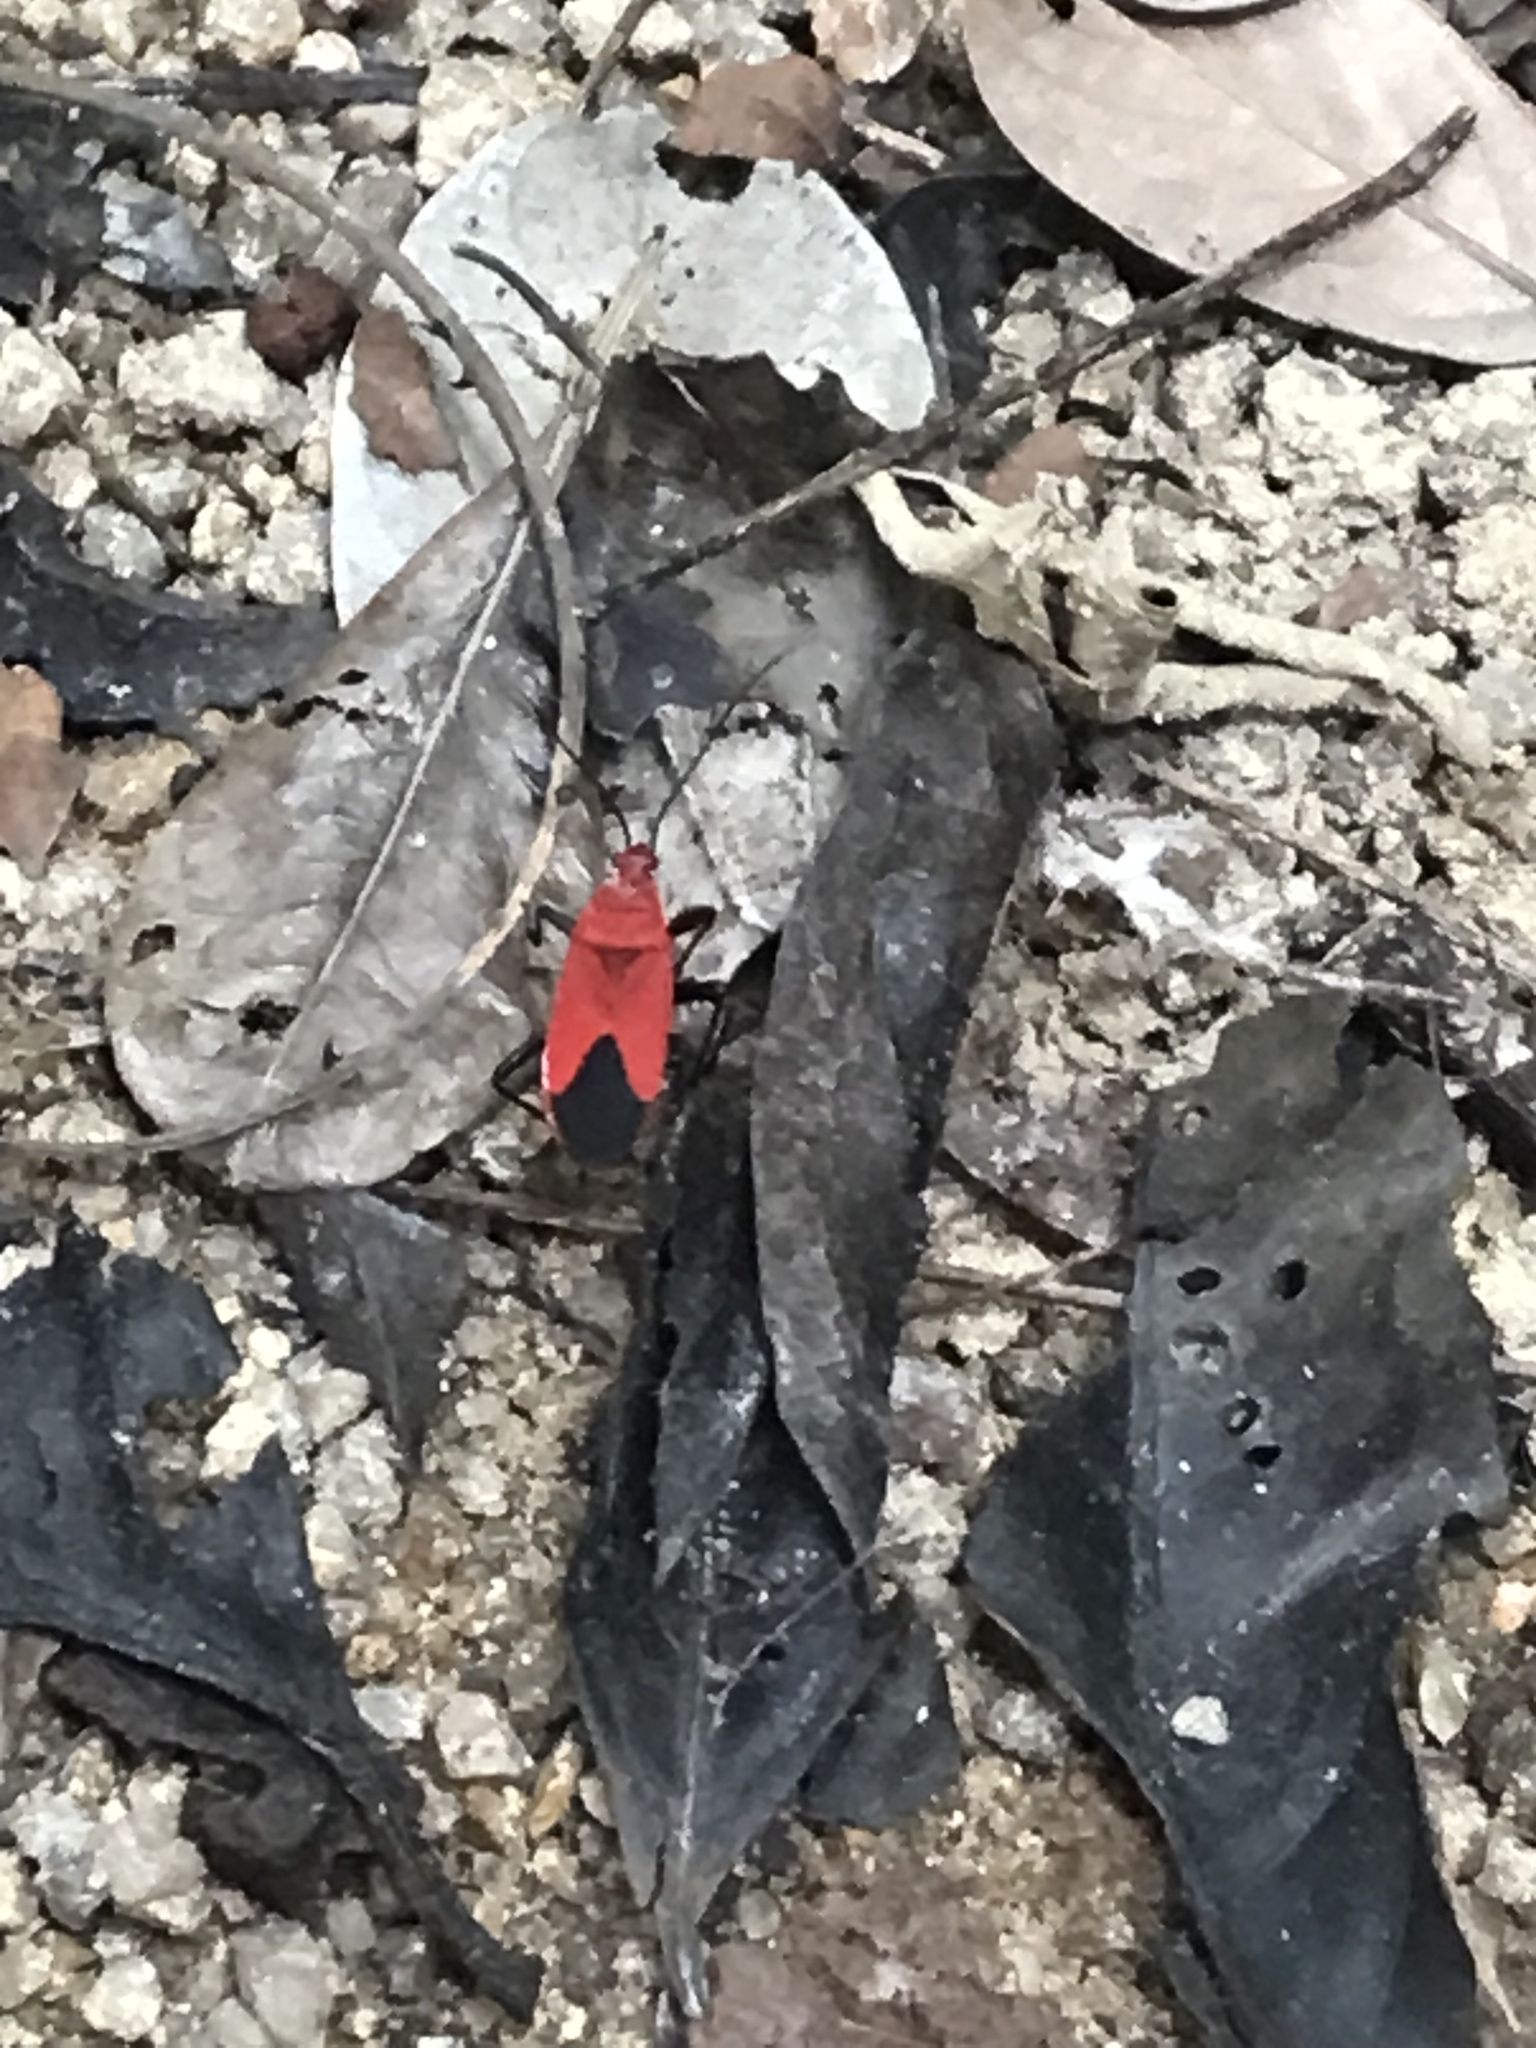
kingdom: Animalia
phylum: Arthropoda
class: Insecta
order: Hemiptera
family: Pyrrhocoridae
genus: Antilochus
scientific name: Antilochus
